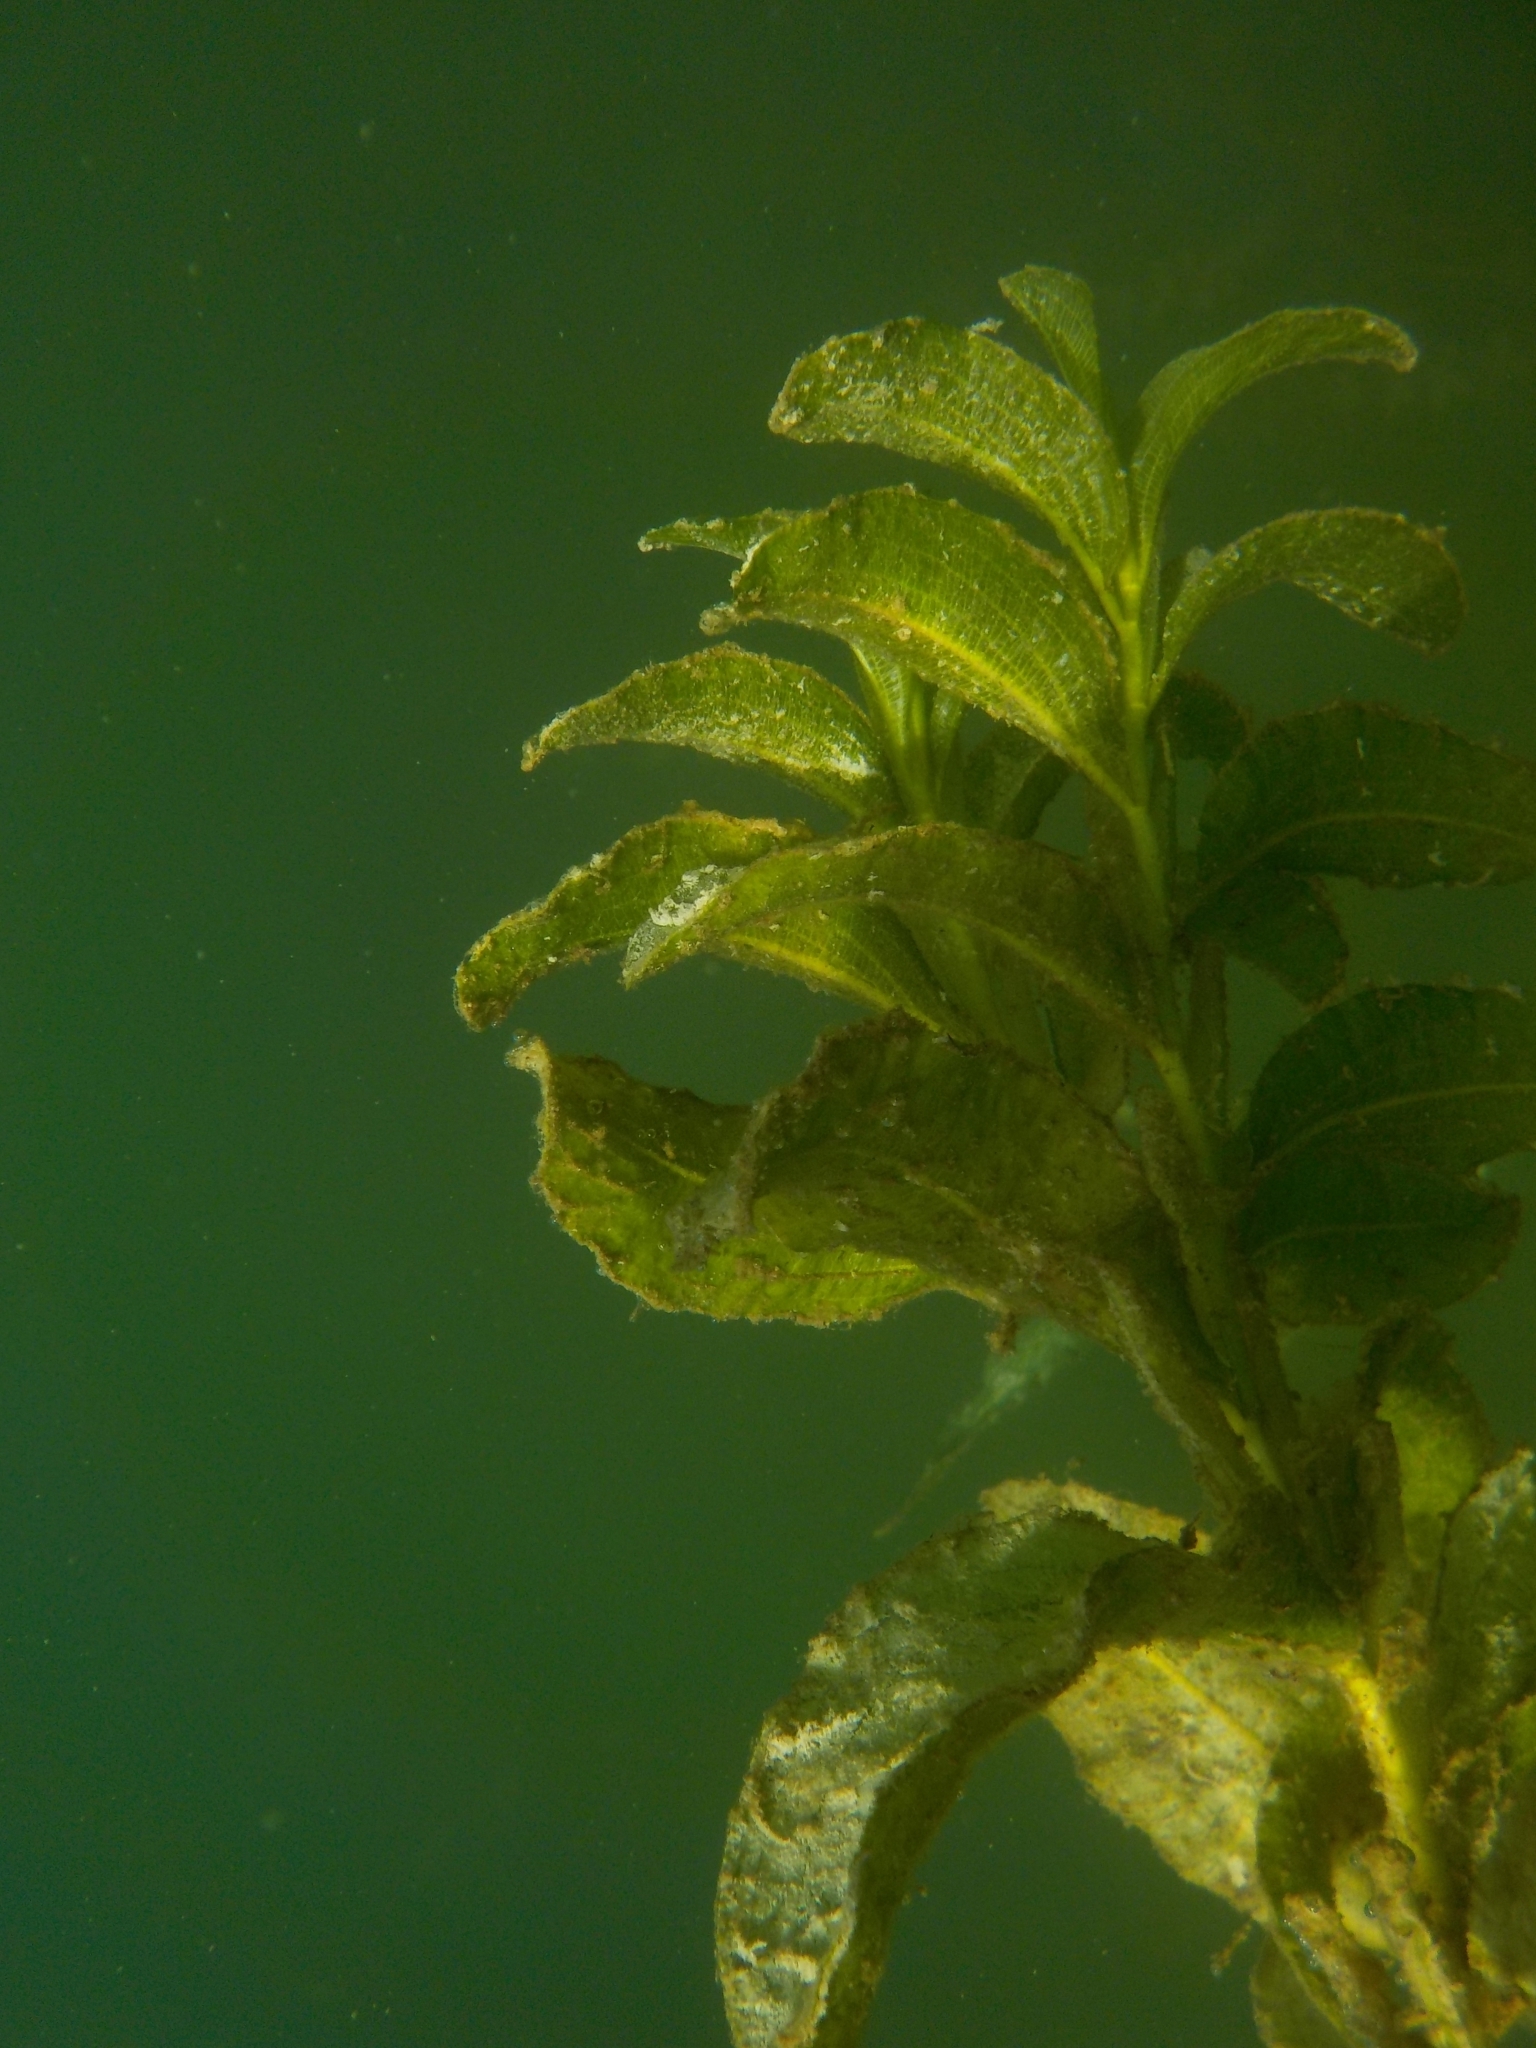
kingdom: Plantae
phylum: Tracheophyta
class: Liliopsida
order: Alismatales
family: Potamogetonaceae
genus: Potamogeton
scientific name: Potamogeton lucens
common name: Shining pondweed
